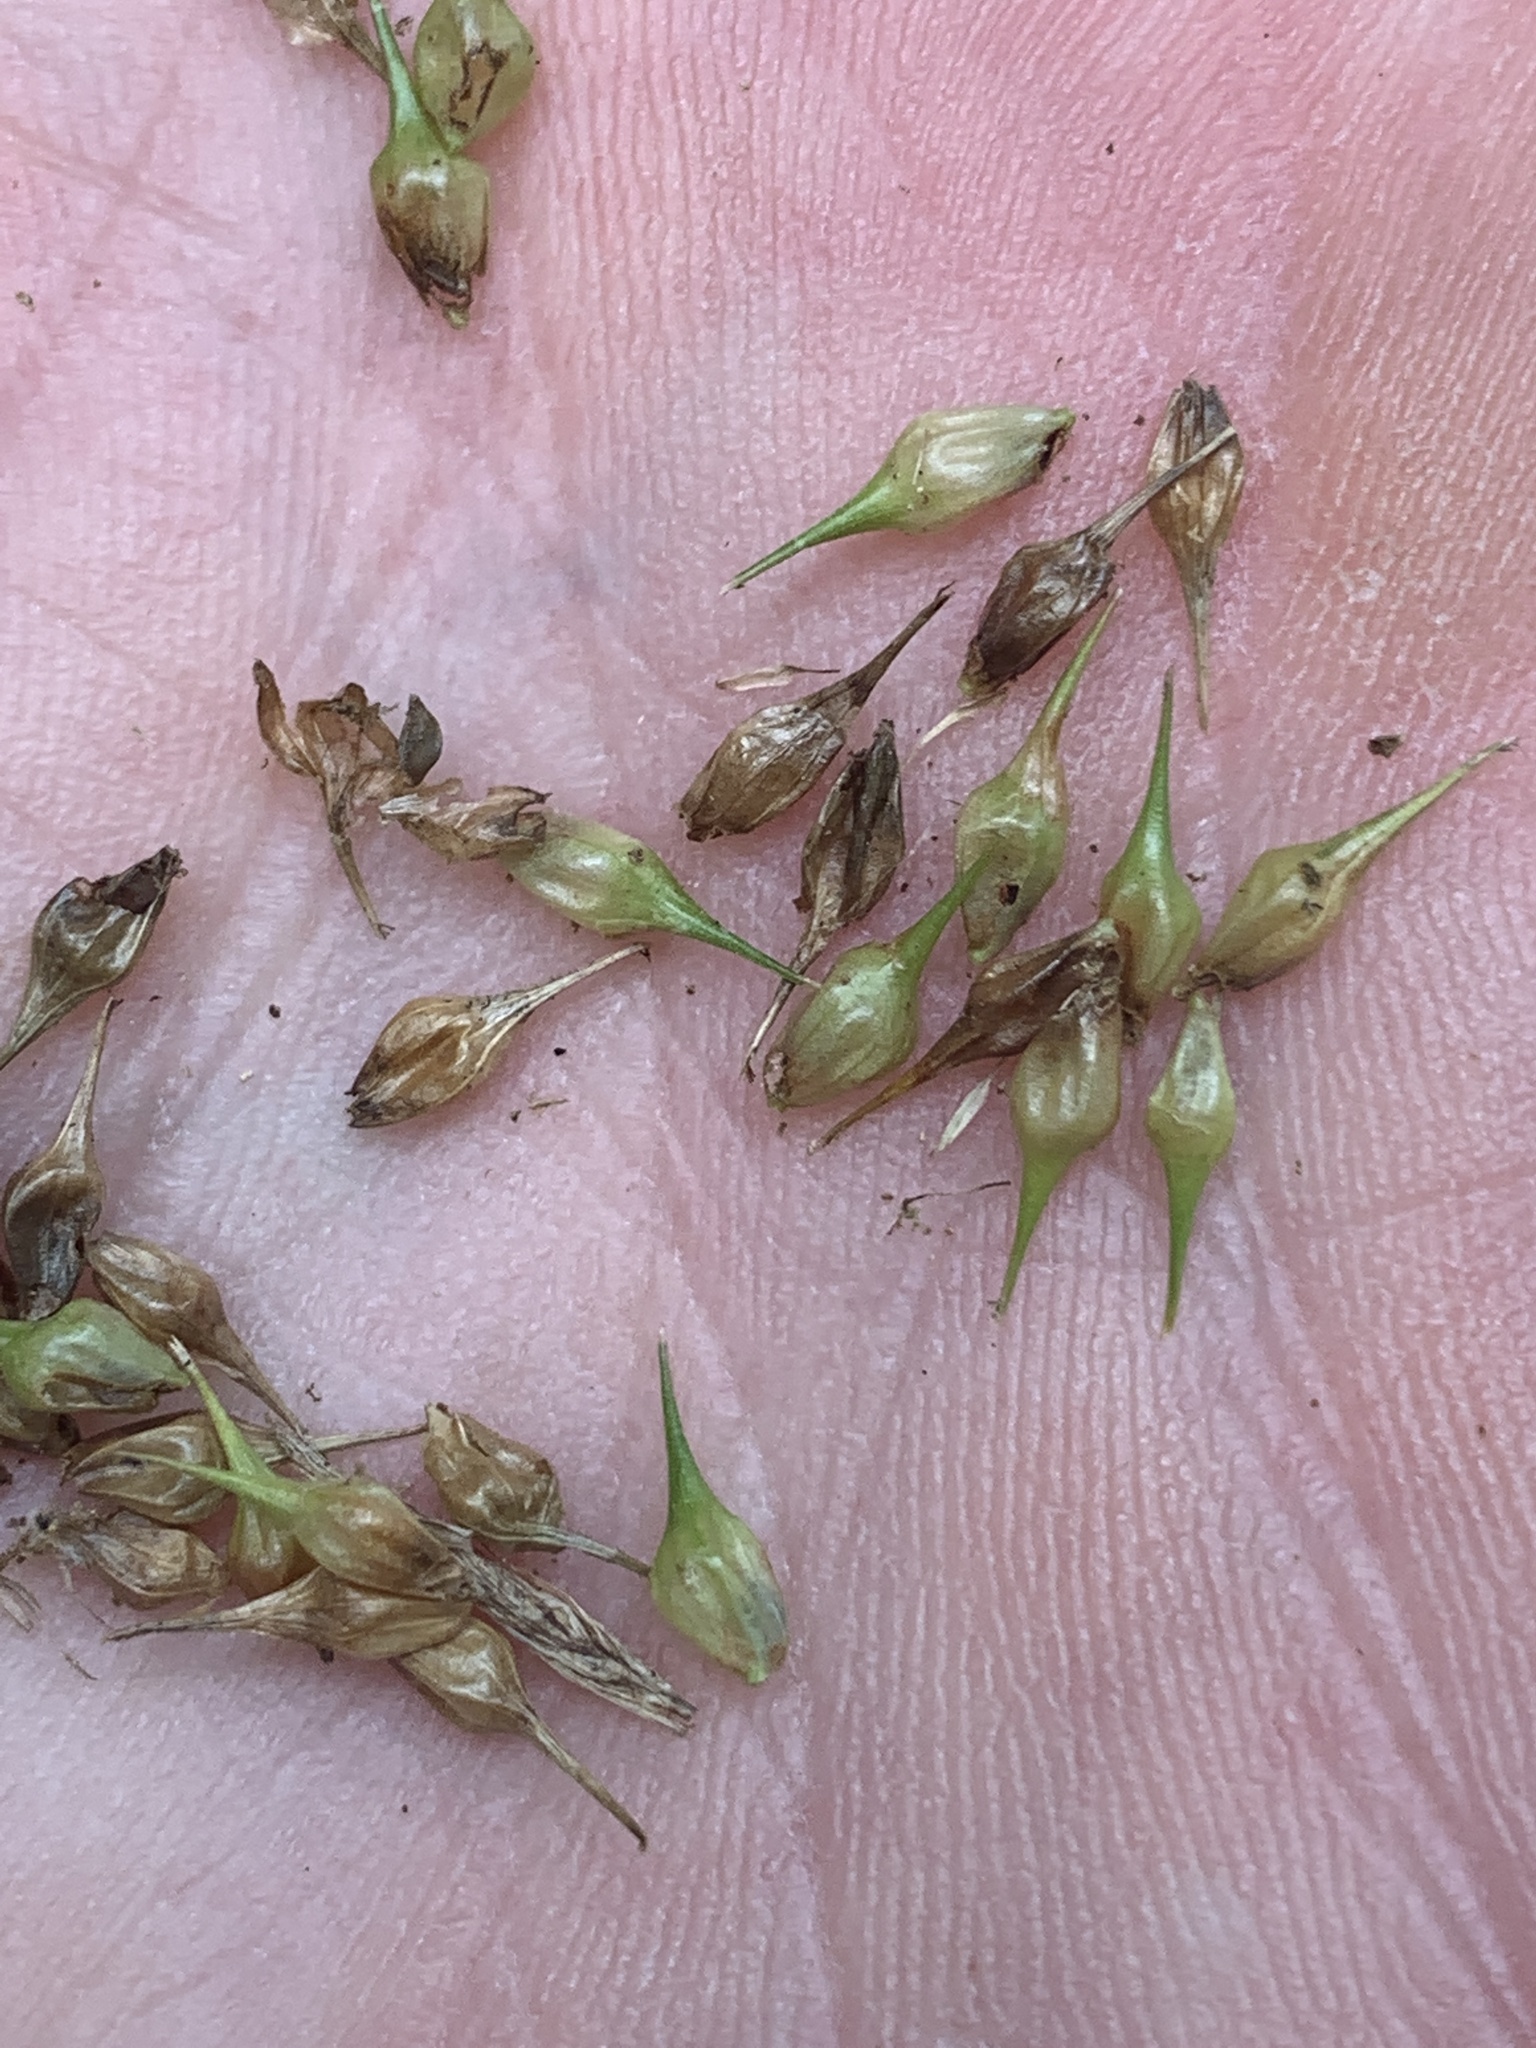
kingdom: Plantae
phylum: Tracheophyta
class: Liliopsida
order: Poales
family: Cyperaceae
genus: Carex
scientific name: Carex lurida
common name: Sallow sedge
